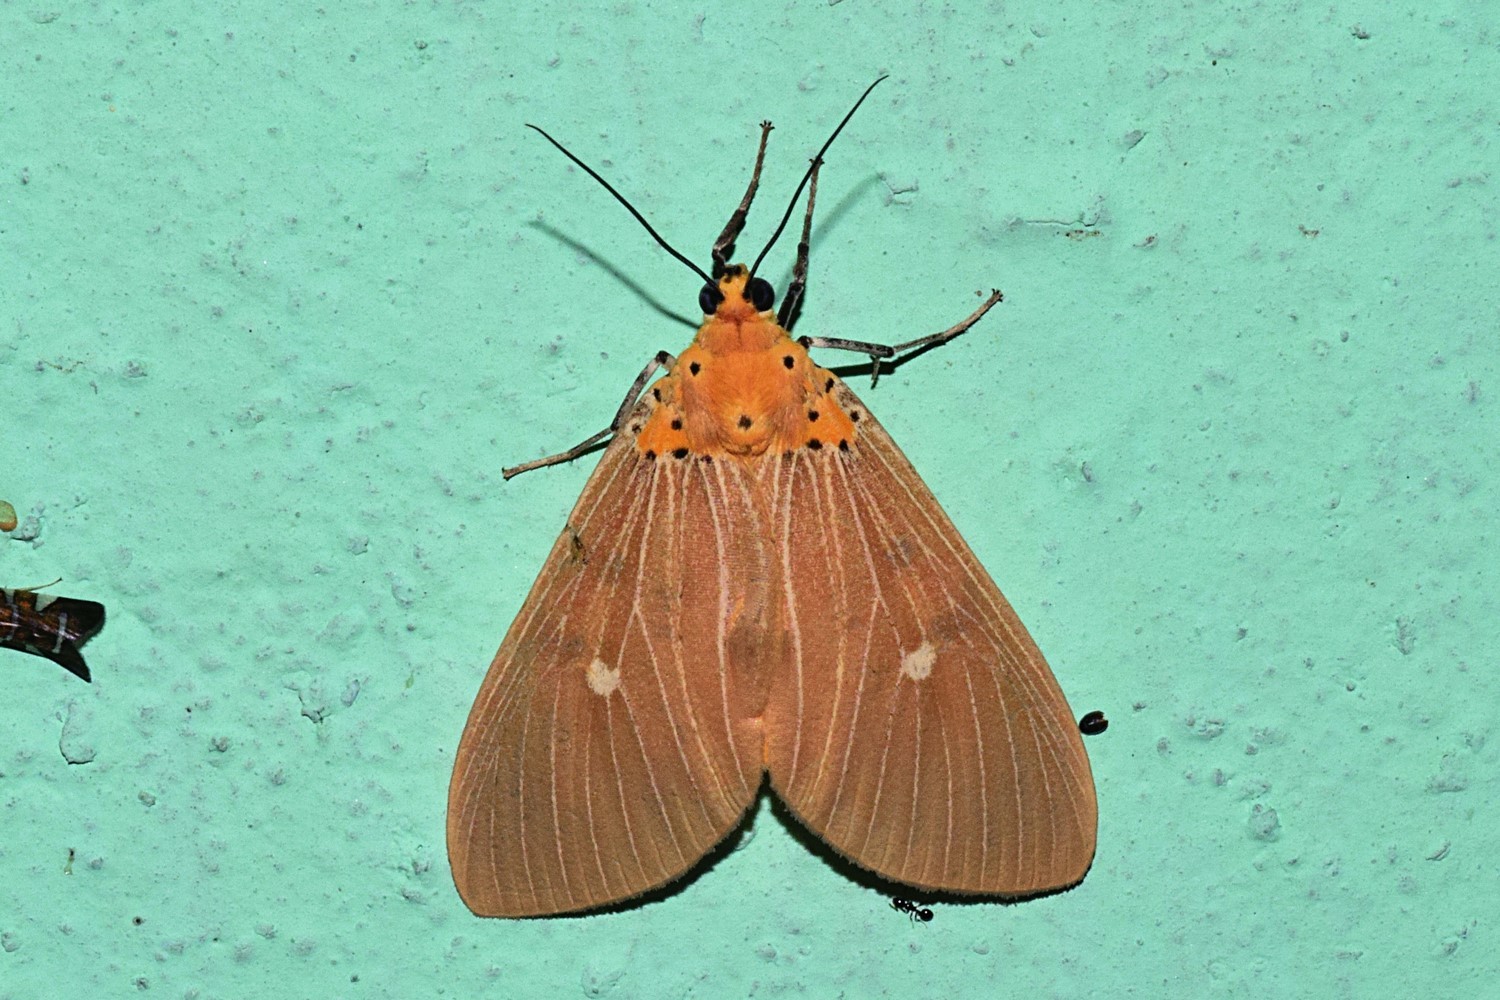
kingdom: Animalia
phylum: Arthropoda
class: Insecta
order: Lepidoptera
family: Erebidae
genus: Asota
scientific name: Asota caricae
